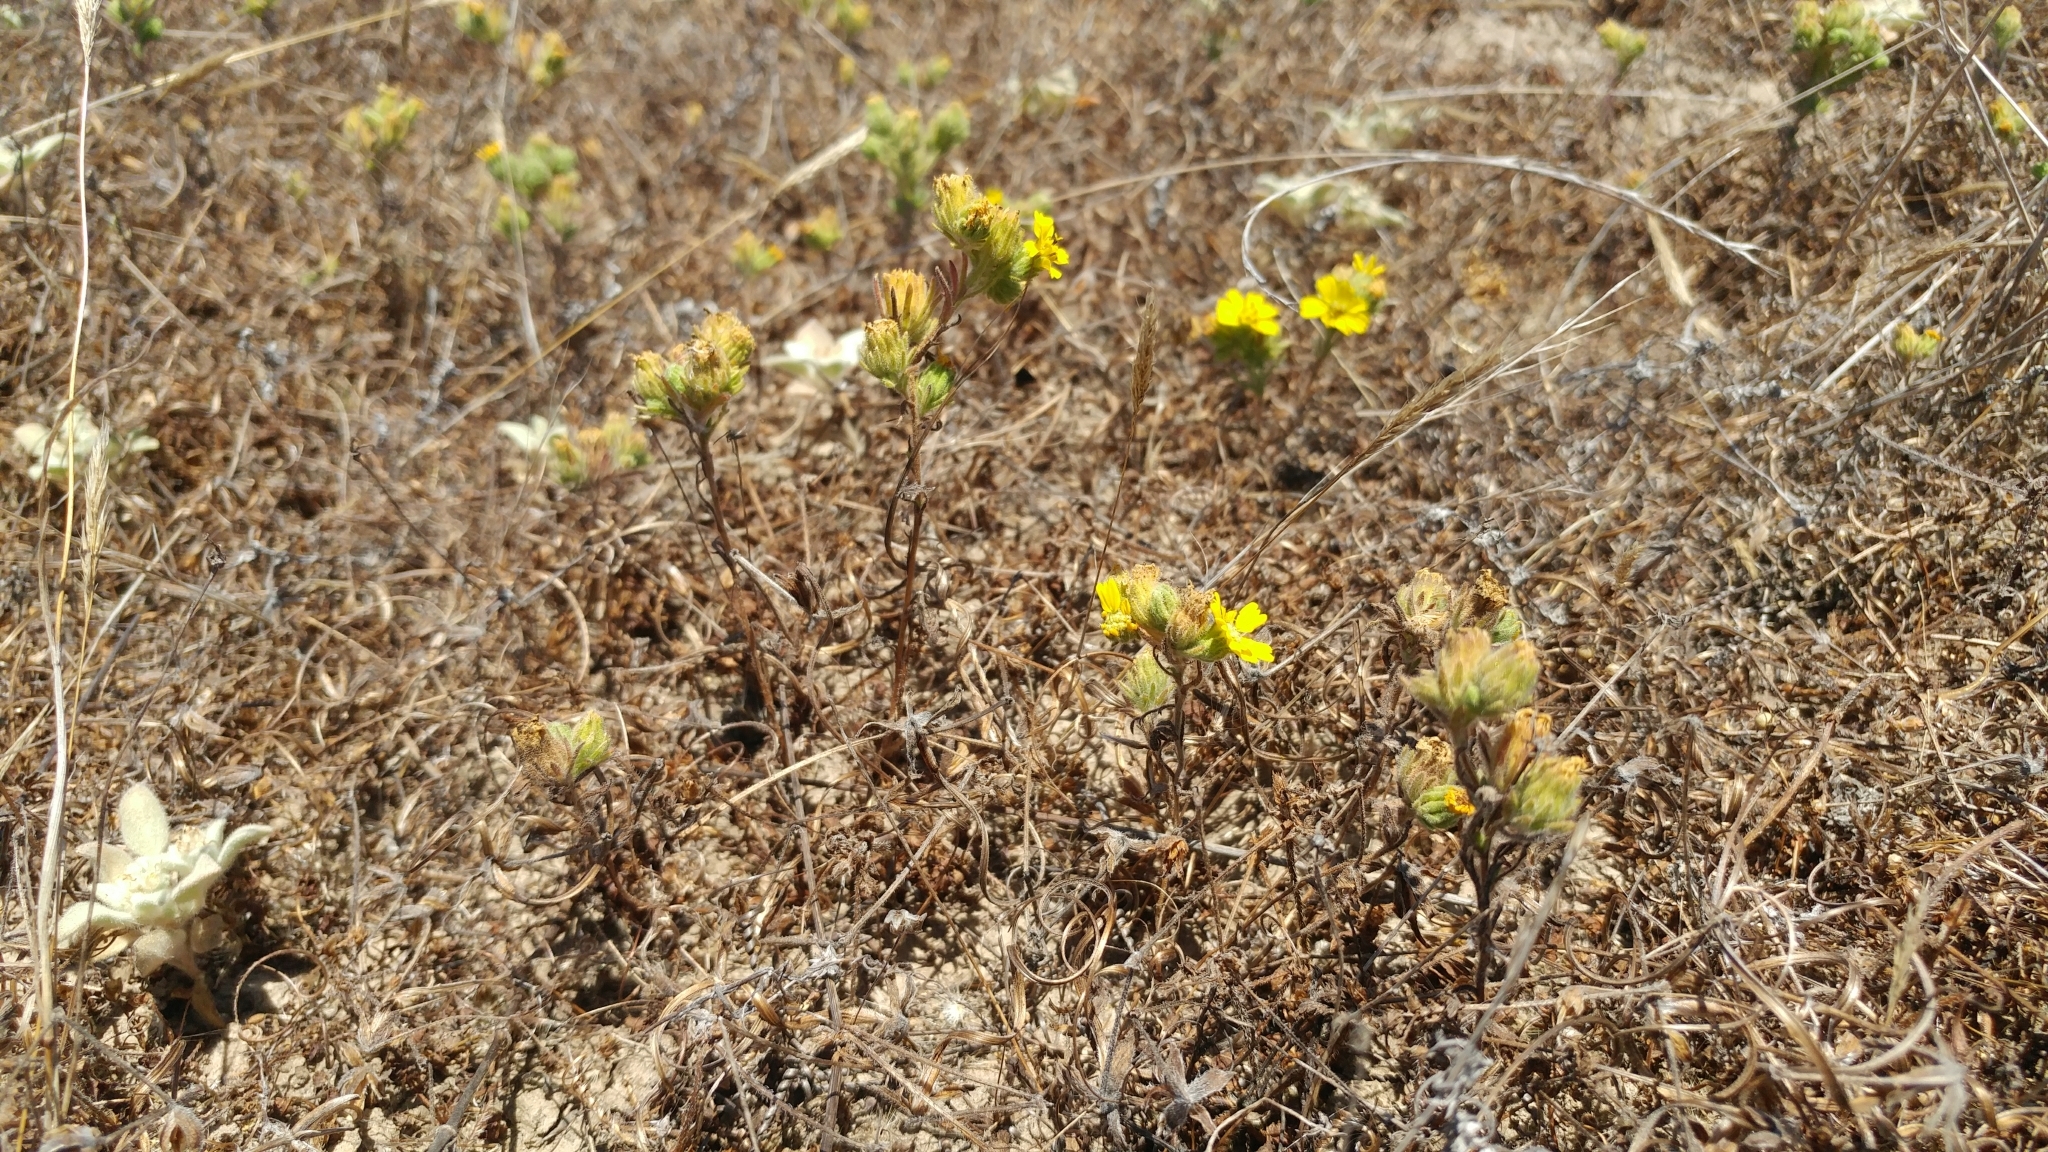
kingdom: Plantae
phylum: Tracheophyta
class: Magnoliopsida
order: Asterales
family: Asteraceae
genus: Deinandra
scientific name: Deinandra increscens
